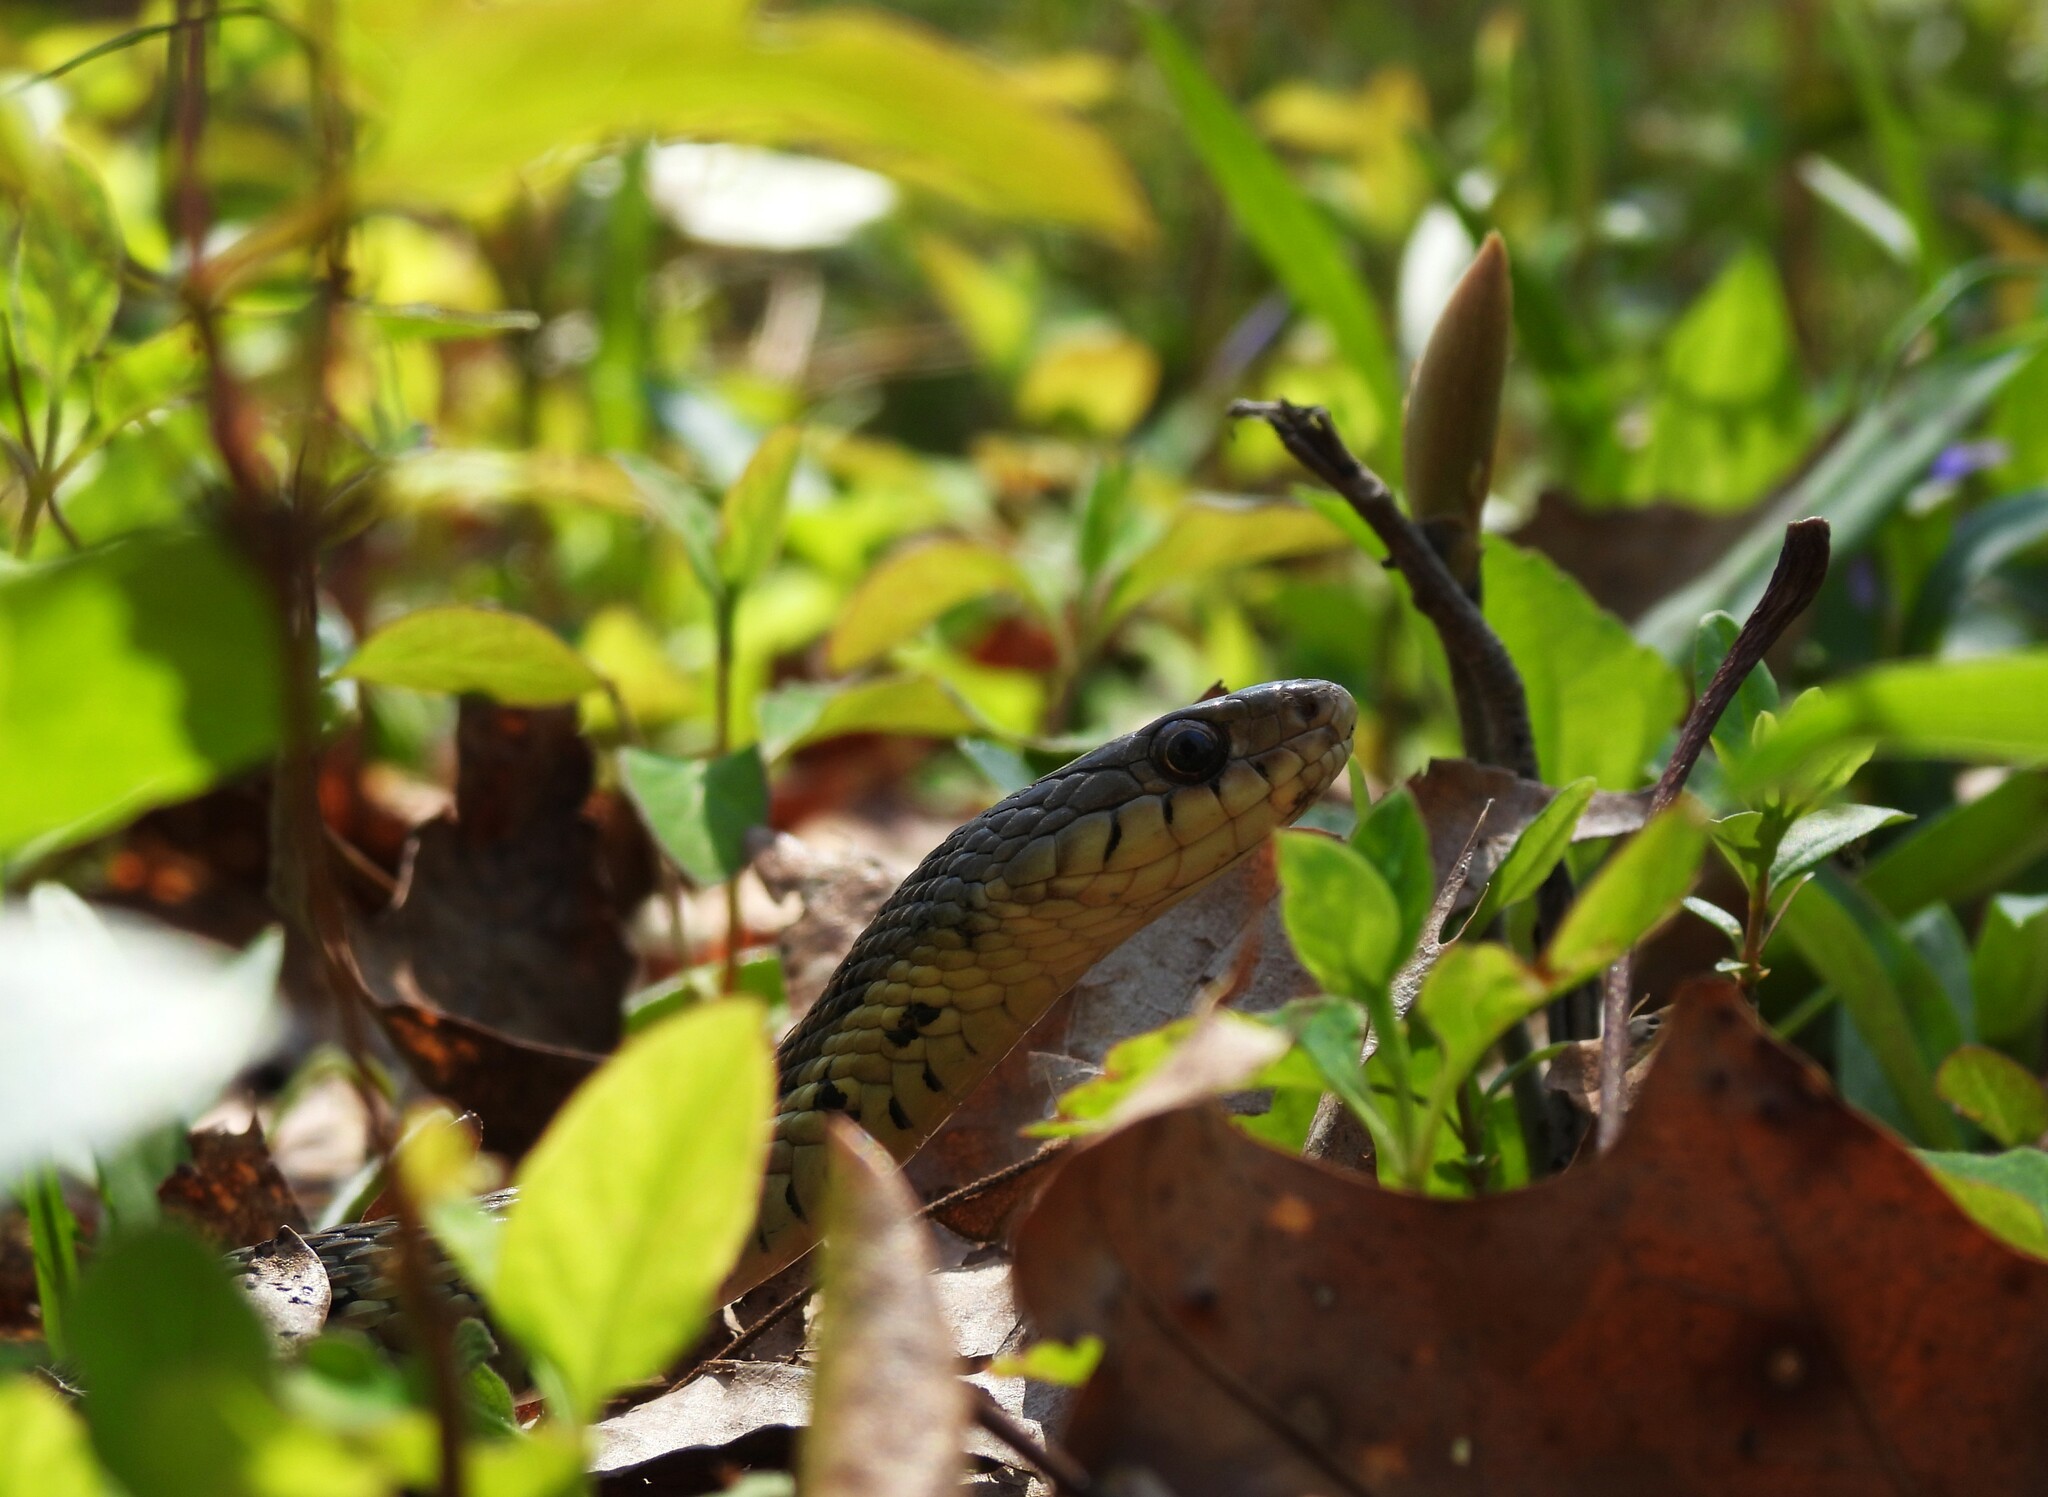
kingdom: Animalia
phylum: Chordata
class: Squamata
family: Colubridae
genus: Thamnophis
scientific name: Thamnophis sirtalis
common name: Common garter snake
